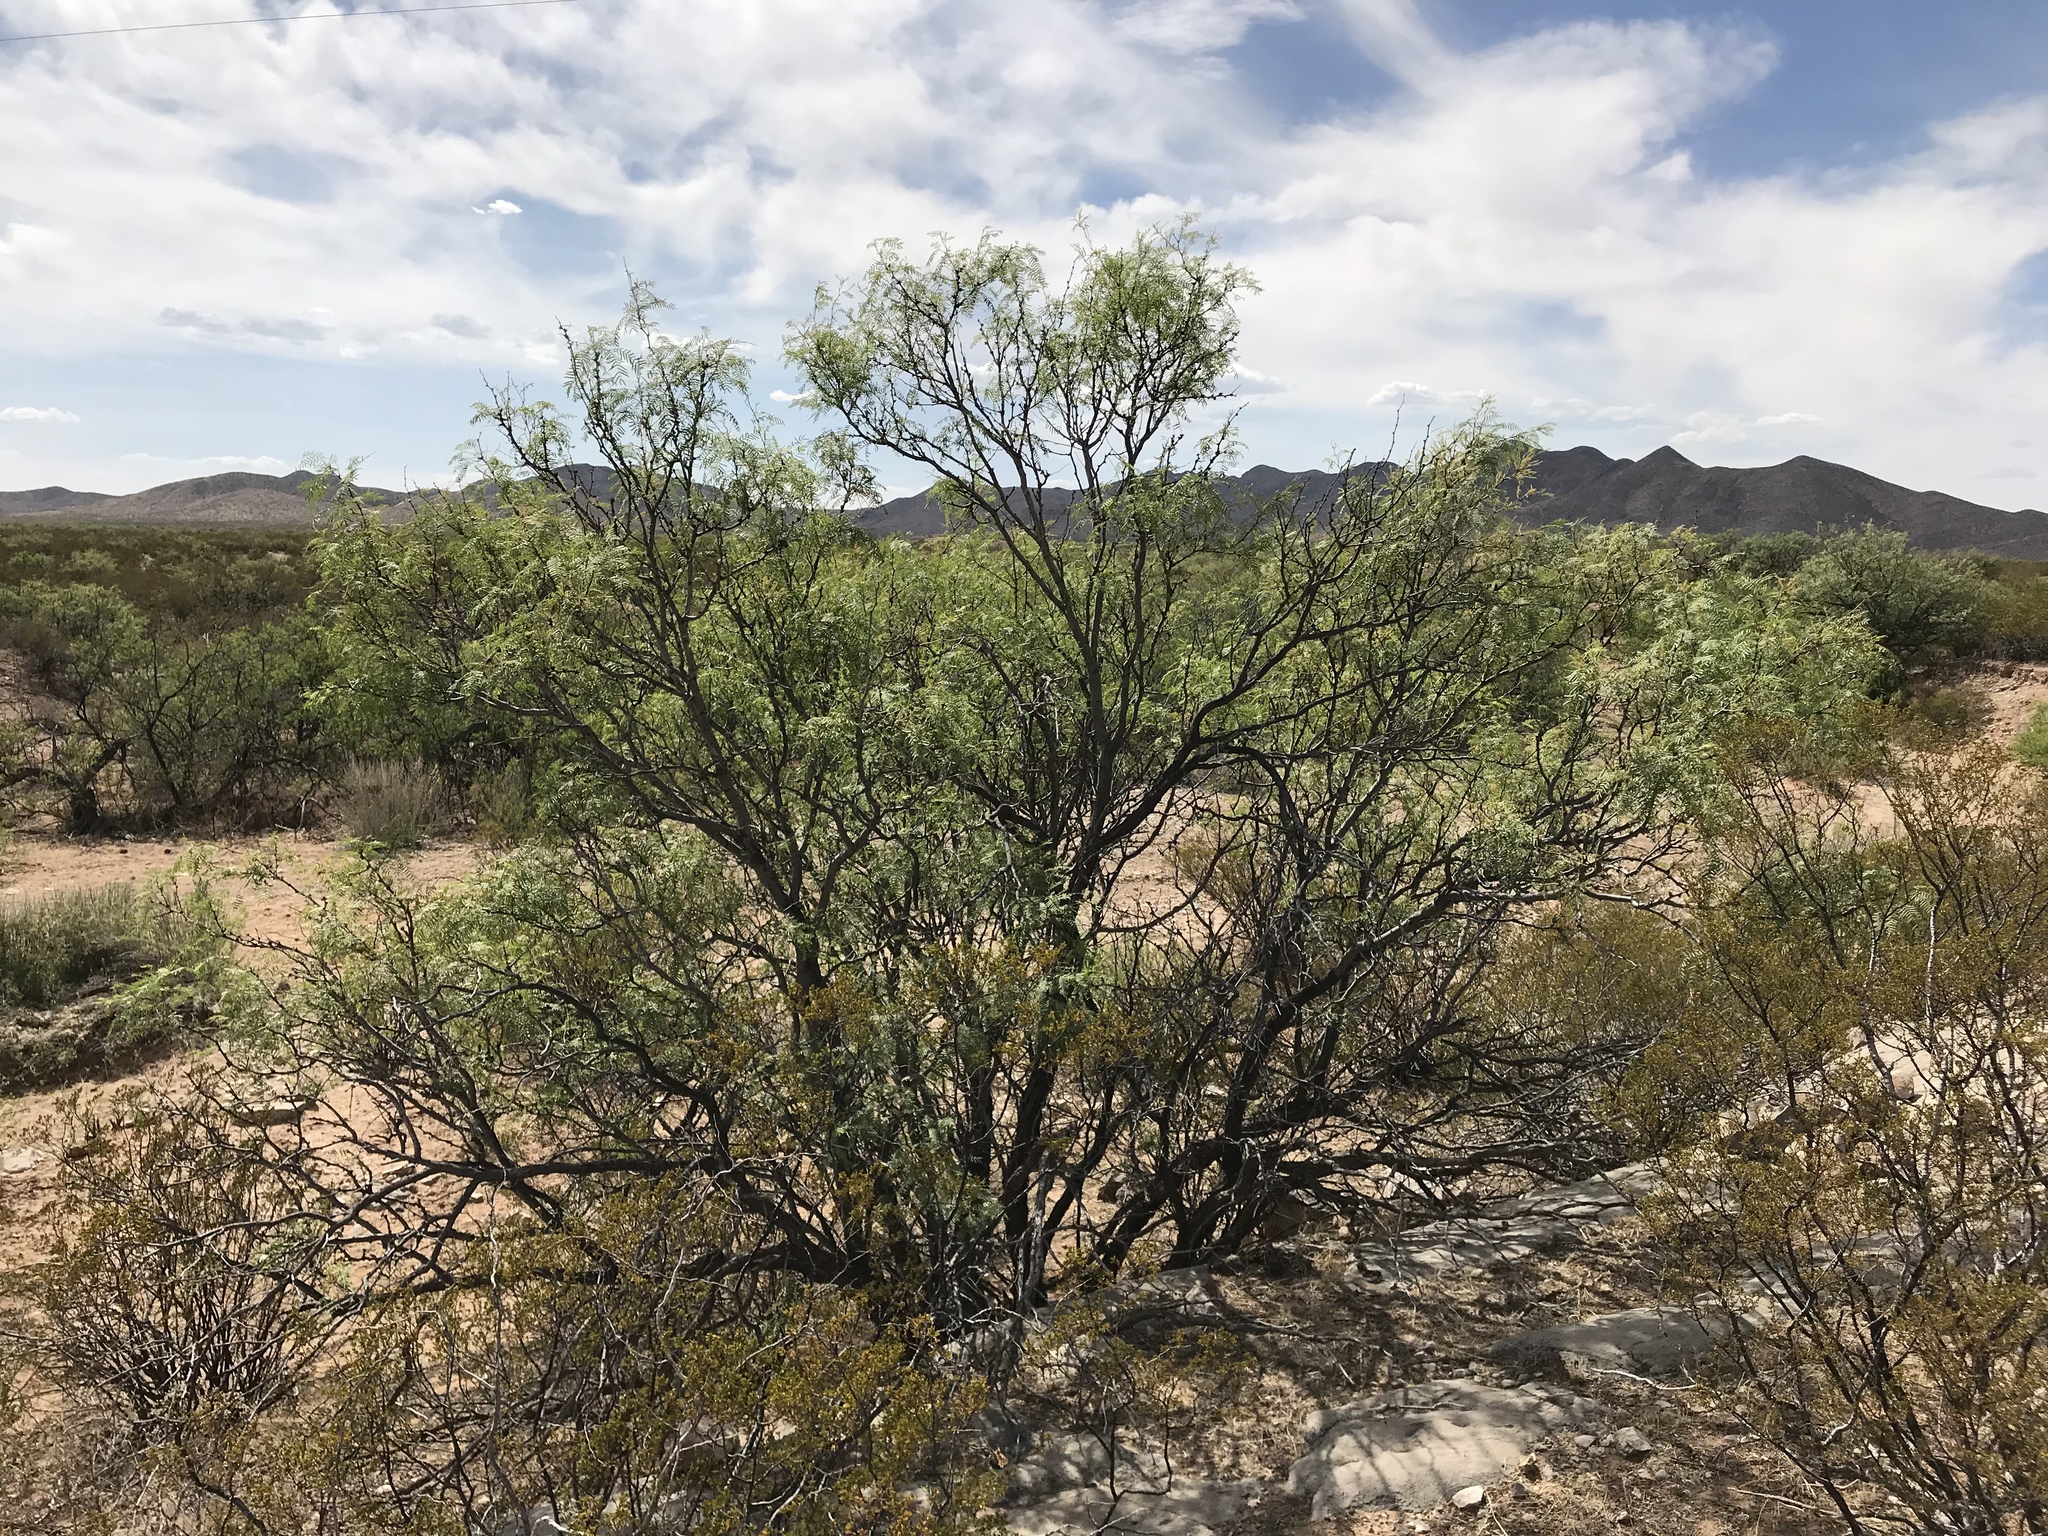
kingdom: Plantae
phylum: Tracheophyta
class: Magnoliopsida
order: Fabales
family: Fabaceae
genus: Prosopis
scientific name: Prosopis glandulosa
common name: Honey mesquite
